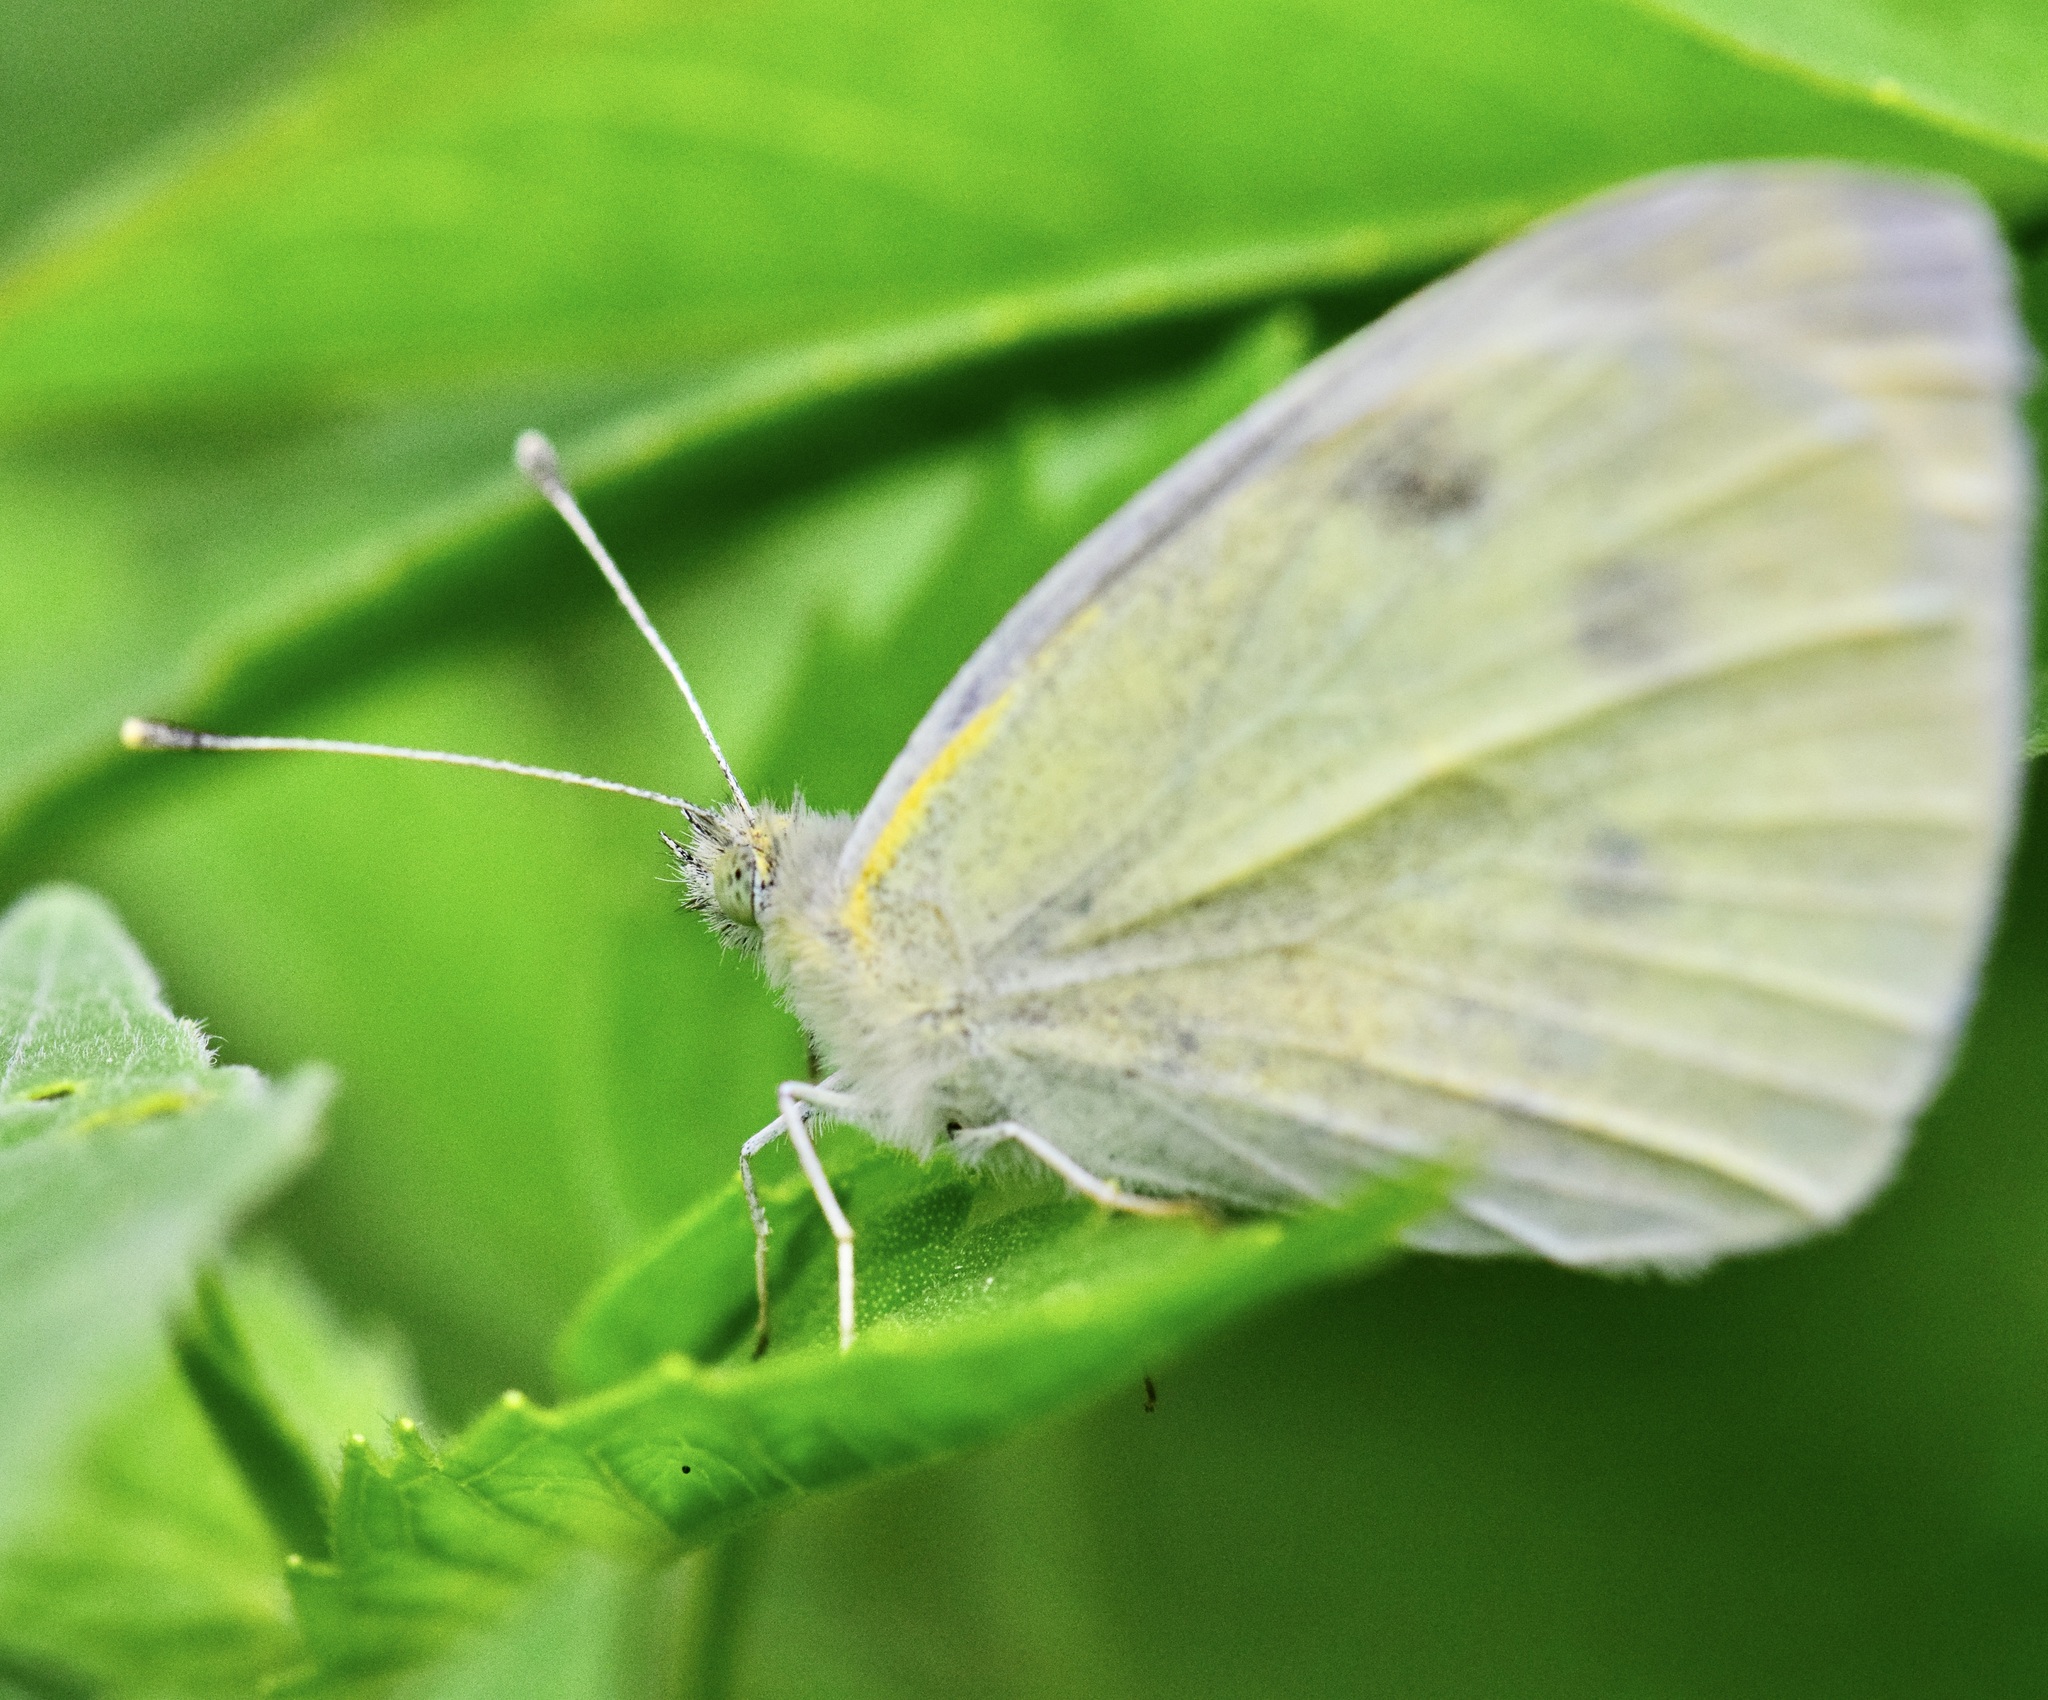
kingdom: Animalia
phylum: Arthropoda
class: Insecta
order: Lepidoptera
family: Pieridae
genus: Pieris
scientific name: Pieris rapae
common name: Small white
